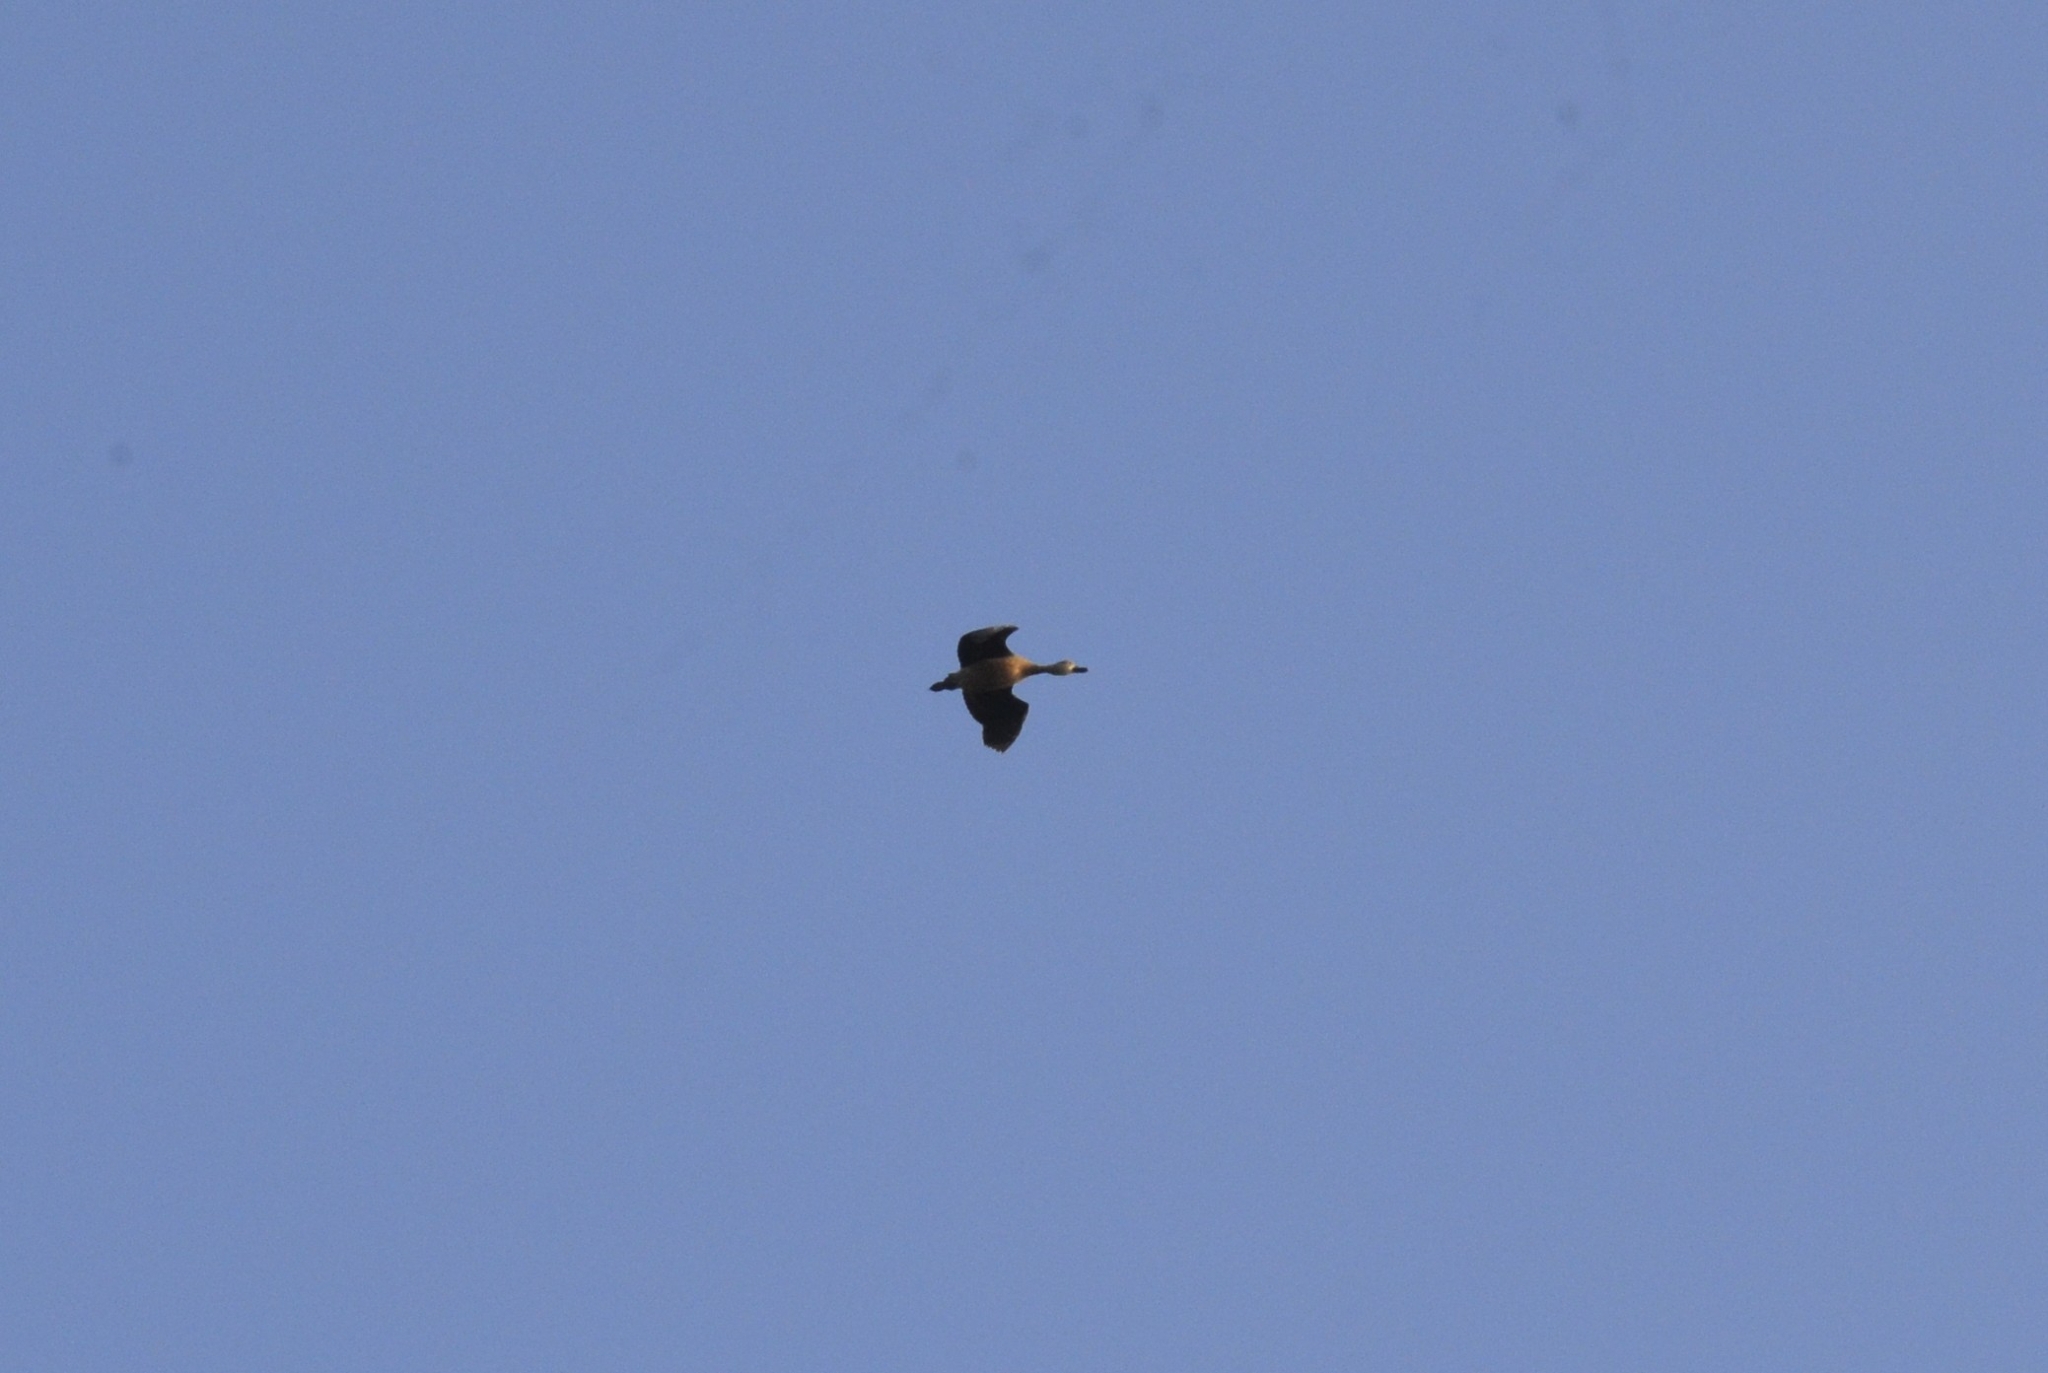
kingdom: Animalia
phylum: Chordata
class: Aves
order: Anseriformes
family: Anatidae
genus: Dendrocygna
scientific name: Dendrocygna javanica
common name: Lesser whistling-duck
